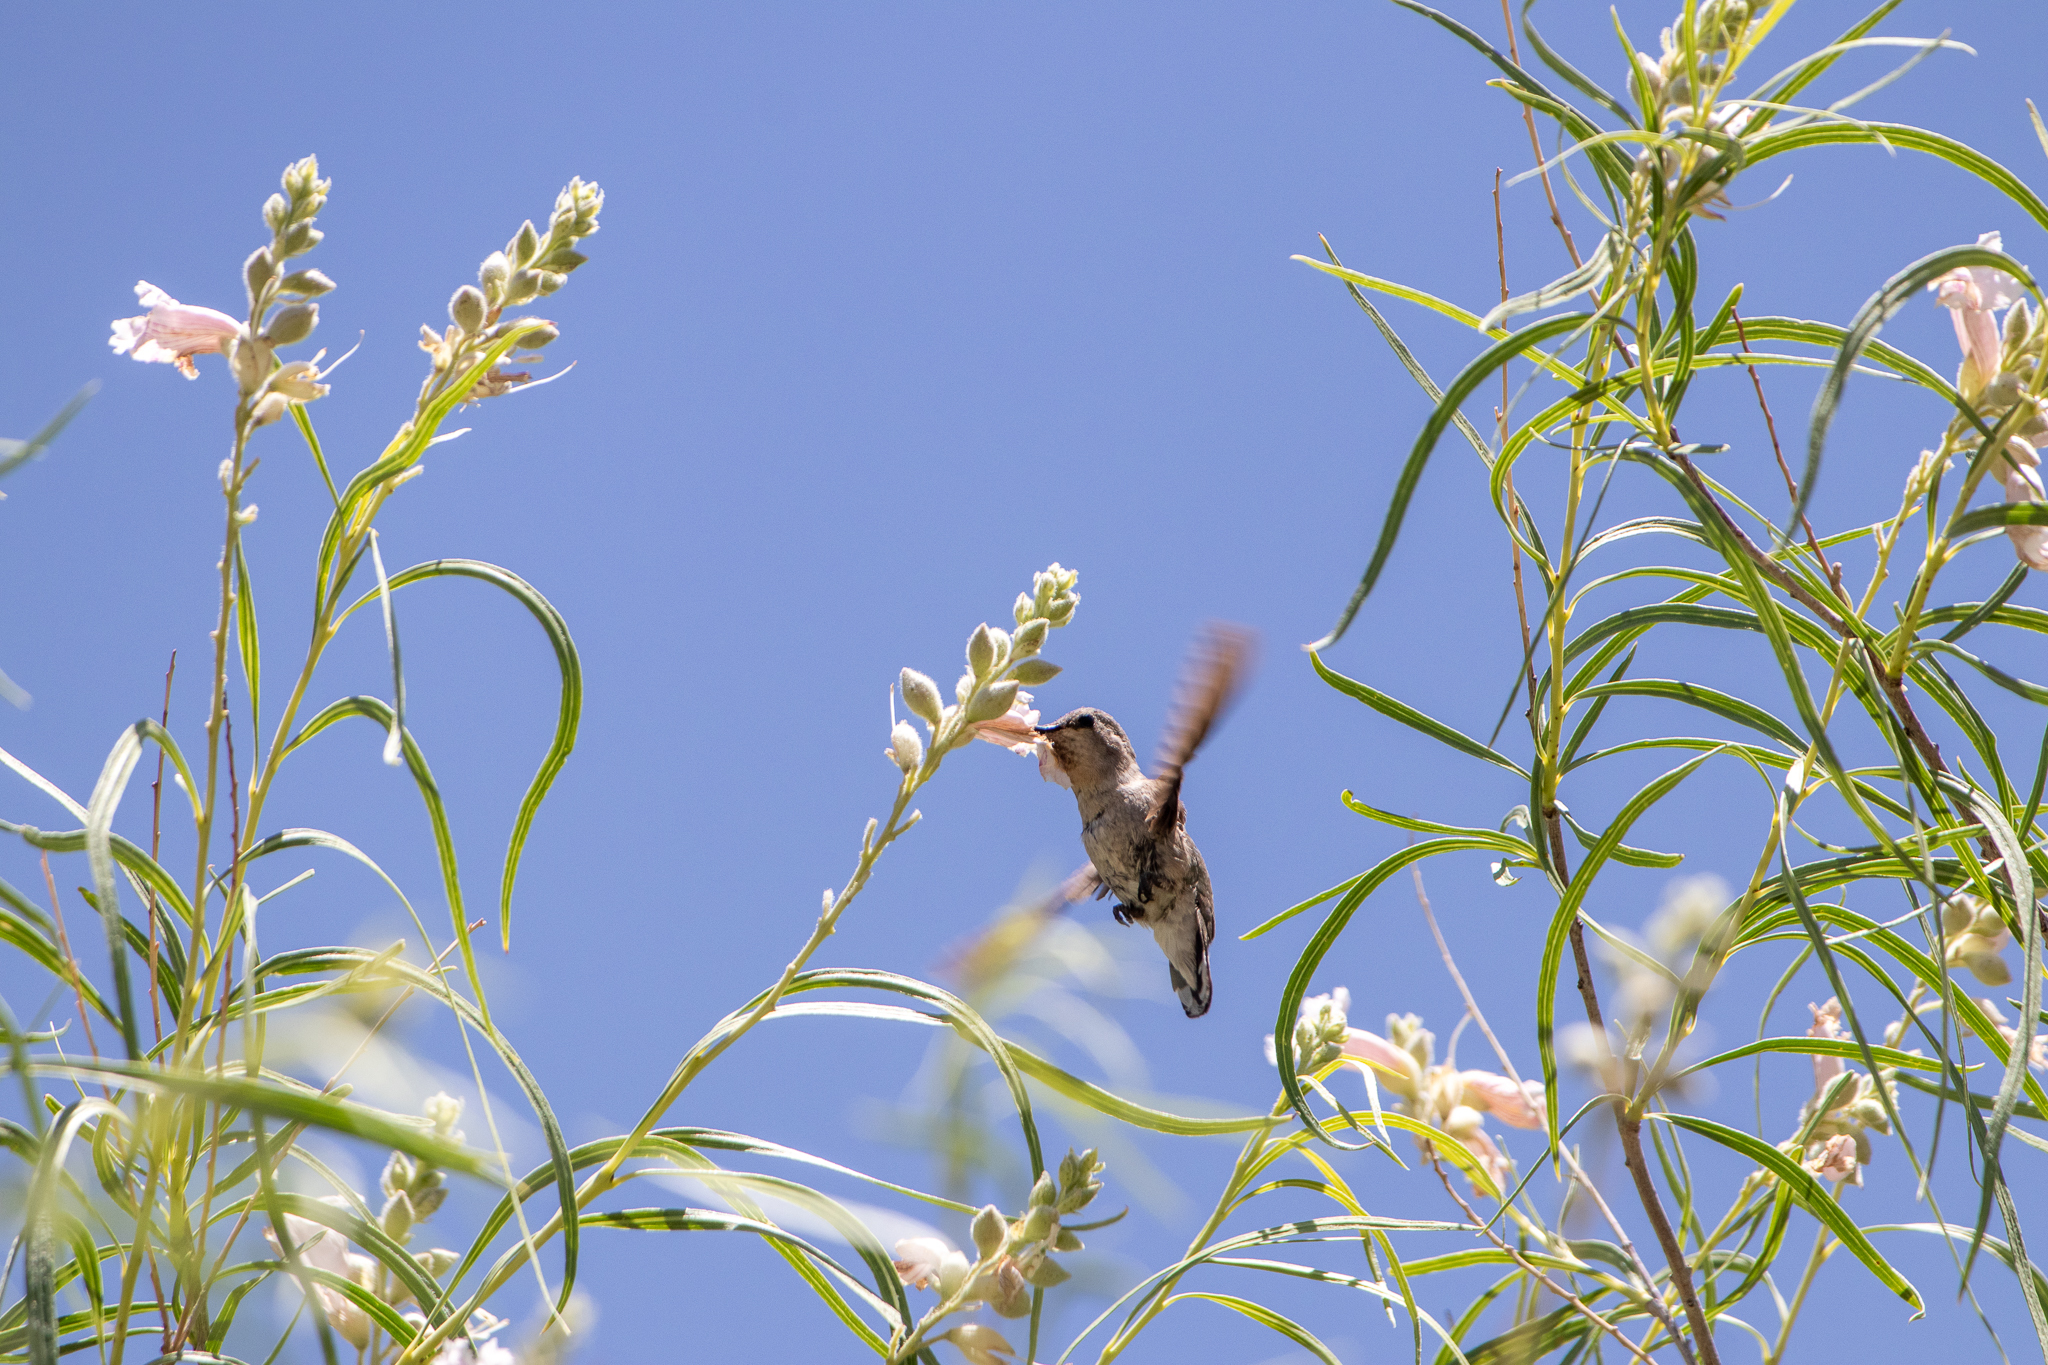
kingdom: Animalia
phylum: Chordata
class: Aves
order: Apodiformes
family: Trochilidae
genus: Calypte
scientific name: Calypte costae
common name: Costa's hummingbird
